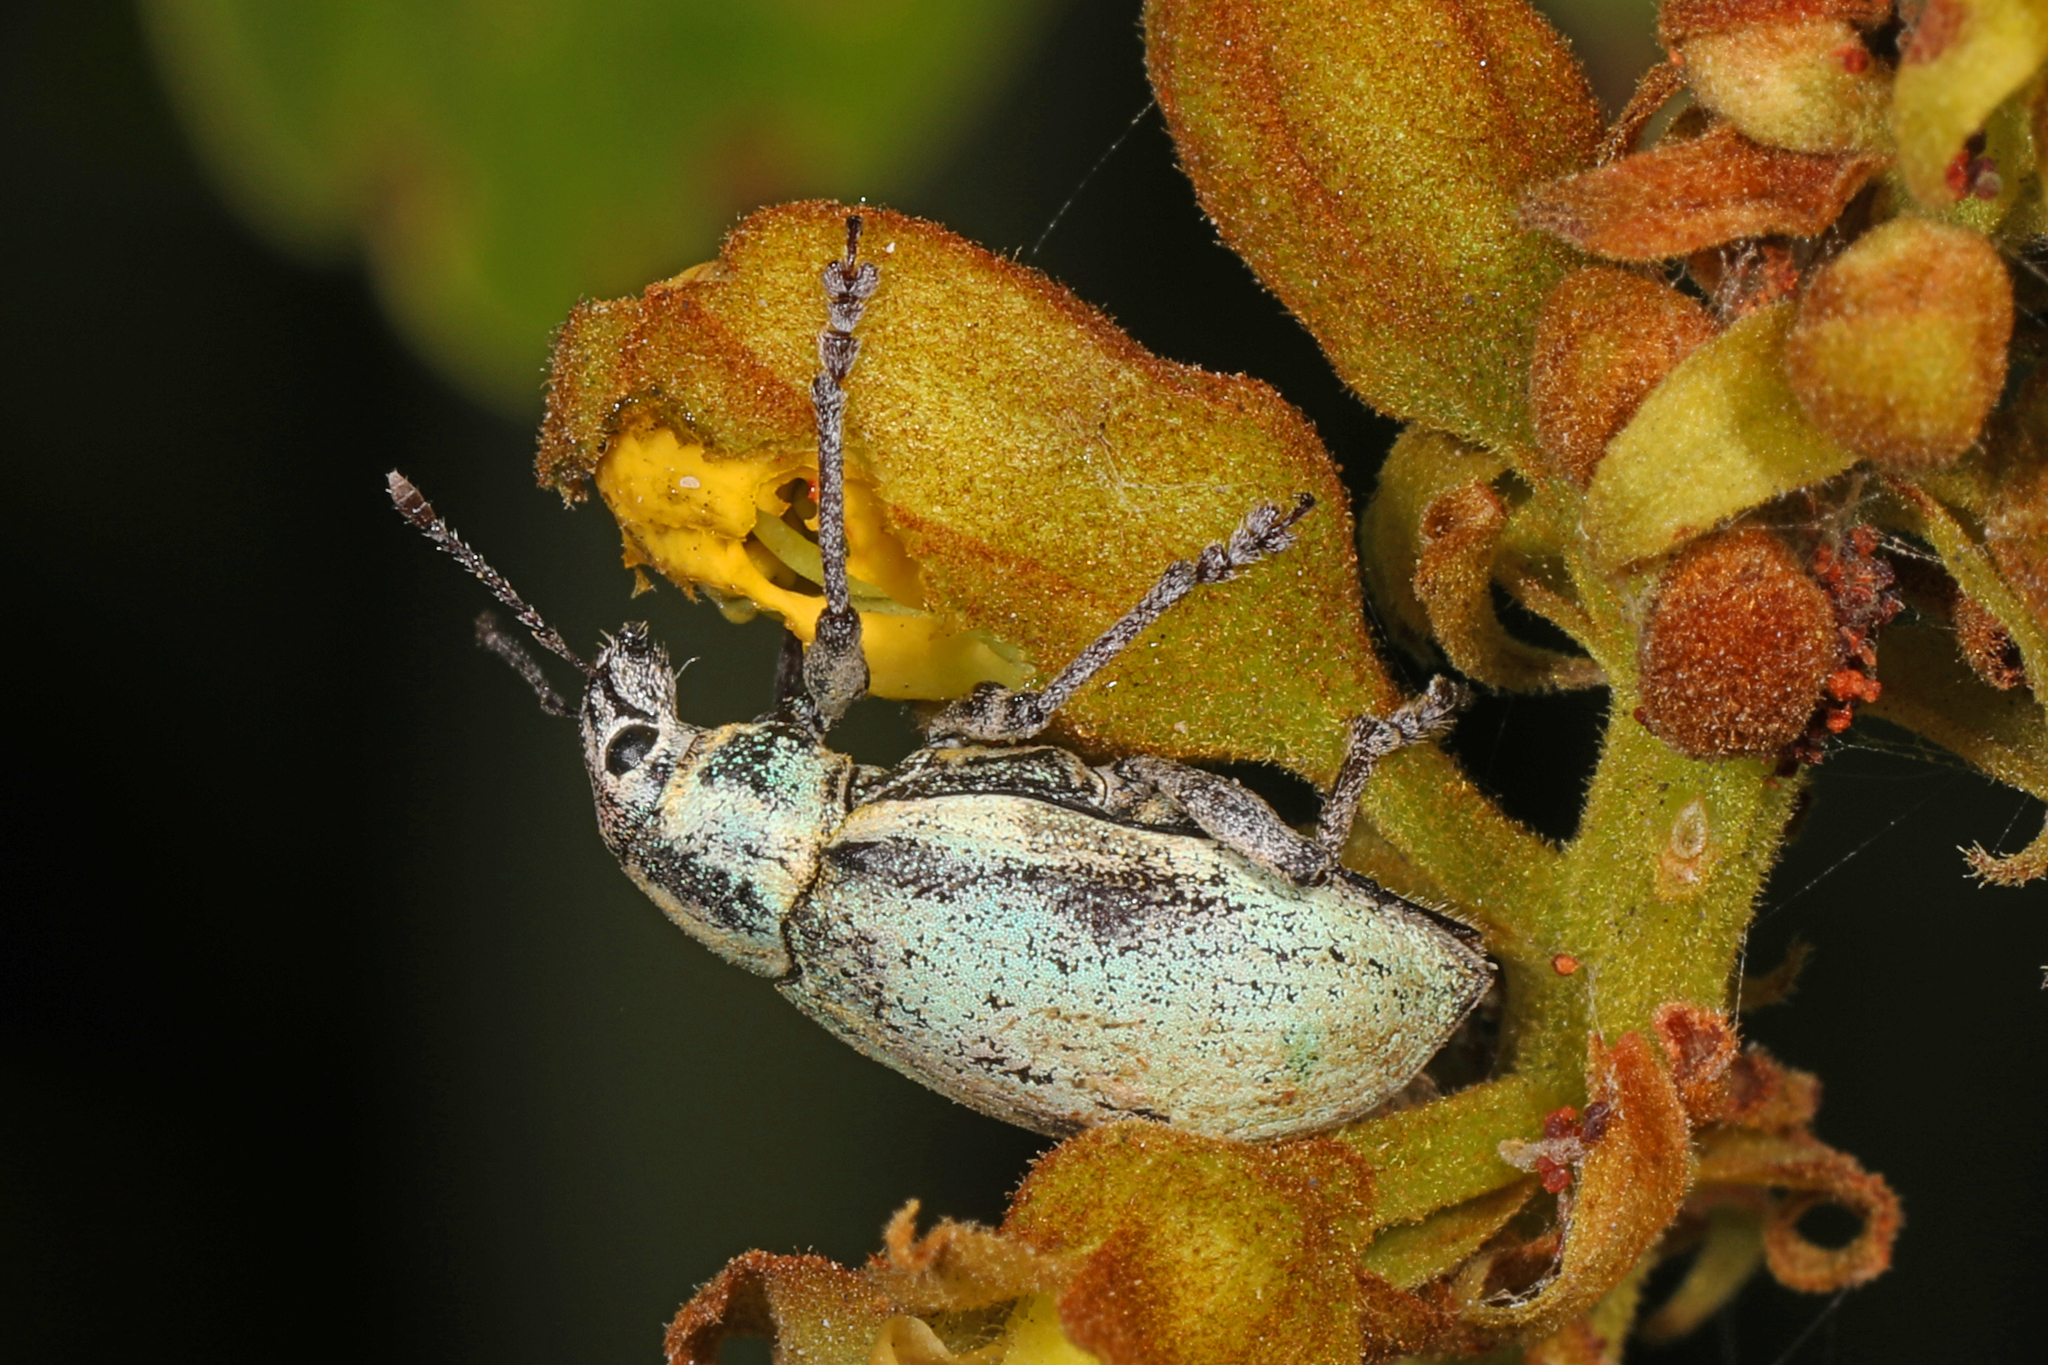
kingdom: Animalia
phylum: Arthropoda
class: Insecta
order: Coleoptera
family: Curculionidae
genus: Pachnaeus
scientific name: Pachnaeus litus
